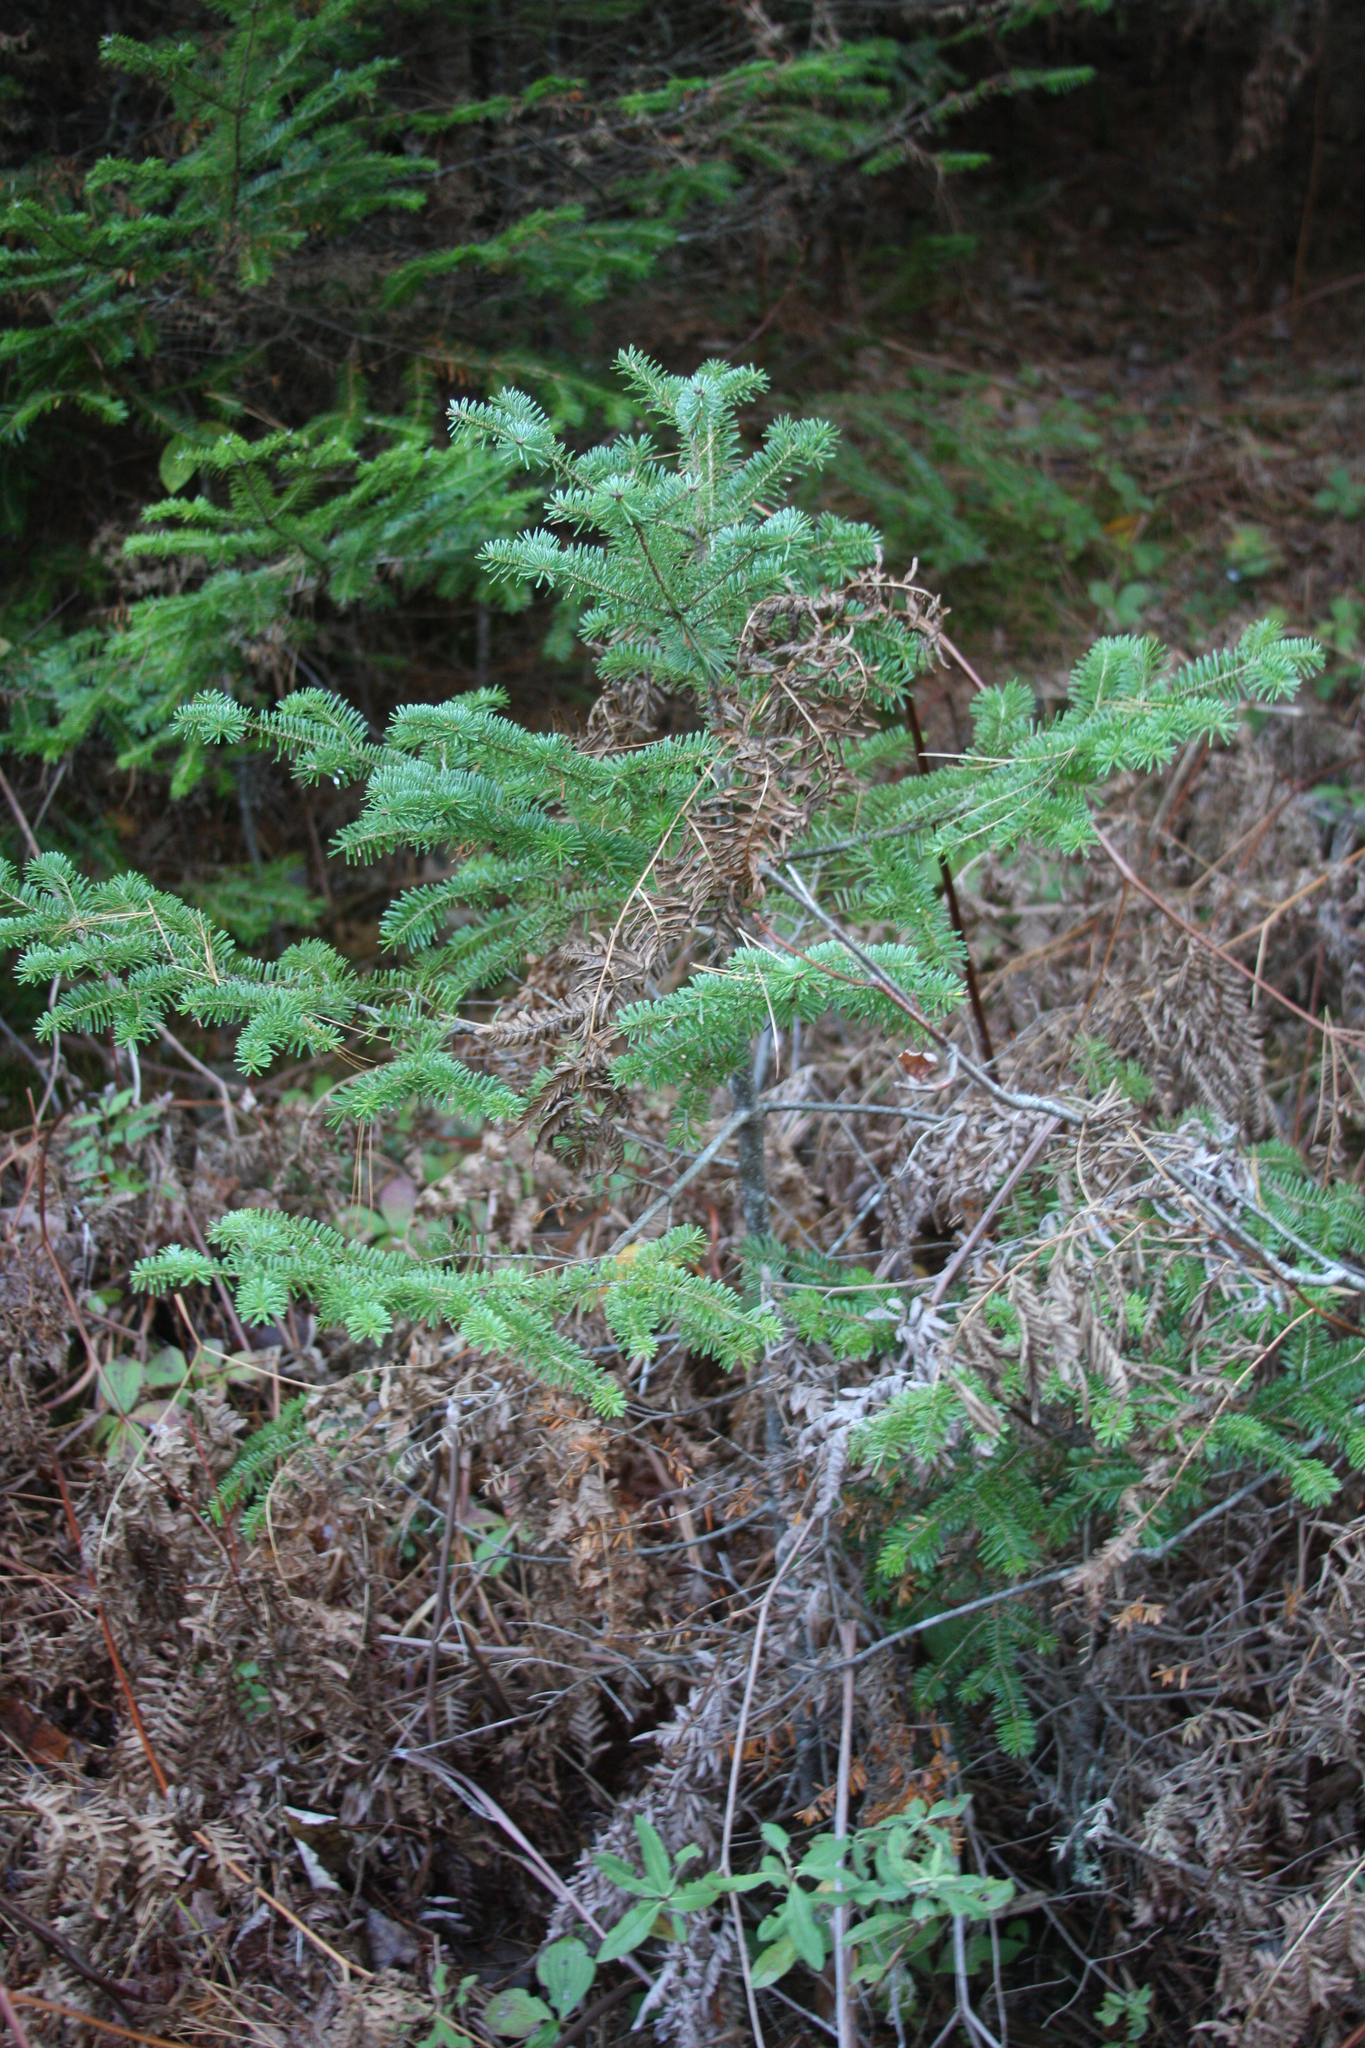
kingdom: Plantae
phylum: Tracheophyta
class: Pinopsida
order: Pinales
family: Pinaceae
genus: Abies
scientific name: Abies balsamea
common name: Balsam fir
